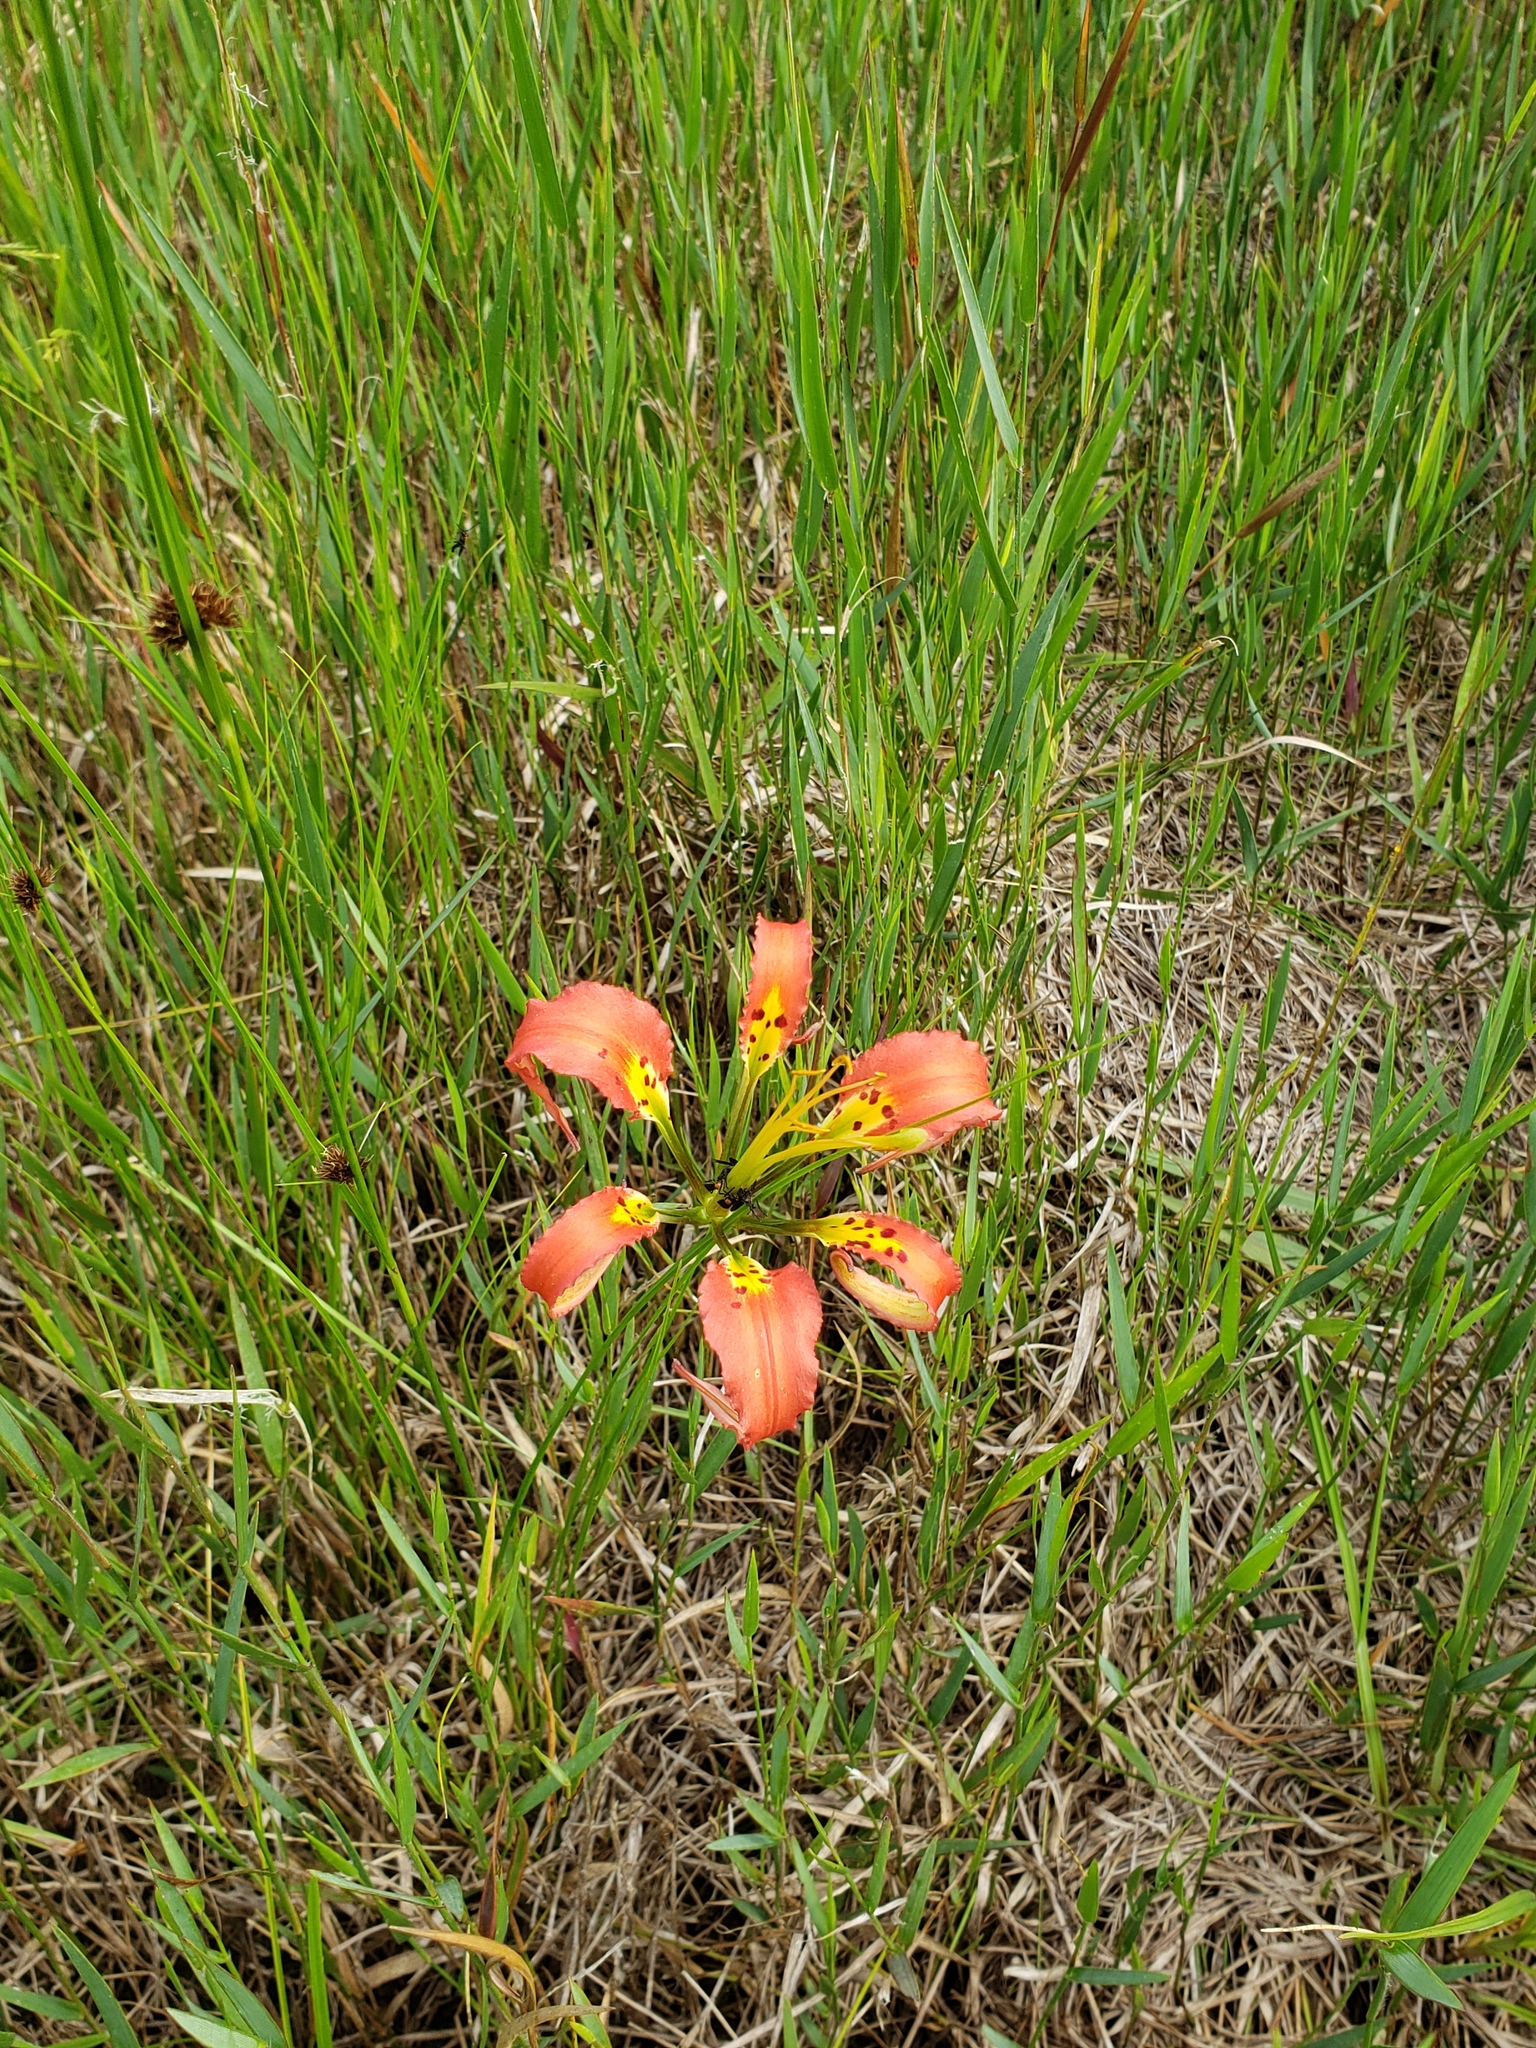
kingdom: Plantae
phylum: Tracheophyta
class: Liliopsida
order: Liliales
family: Liliaceae
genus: Lilium
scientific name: Lilium catesbaei
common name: Catesby's lily
